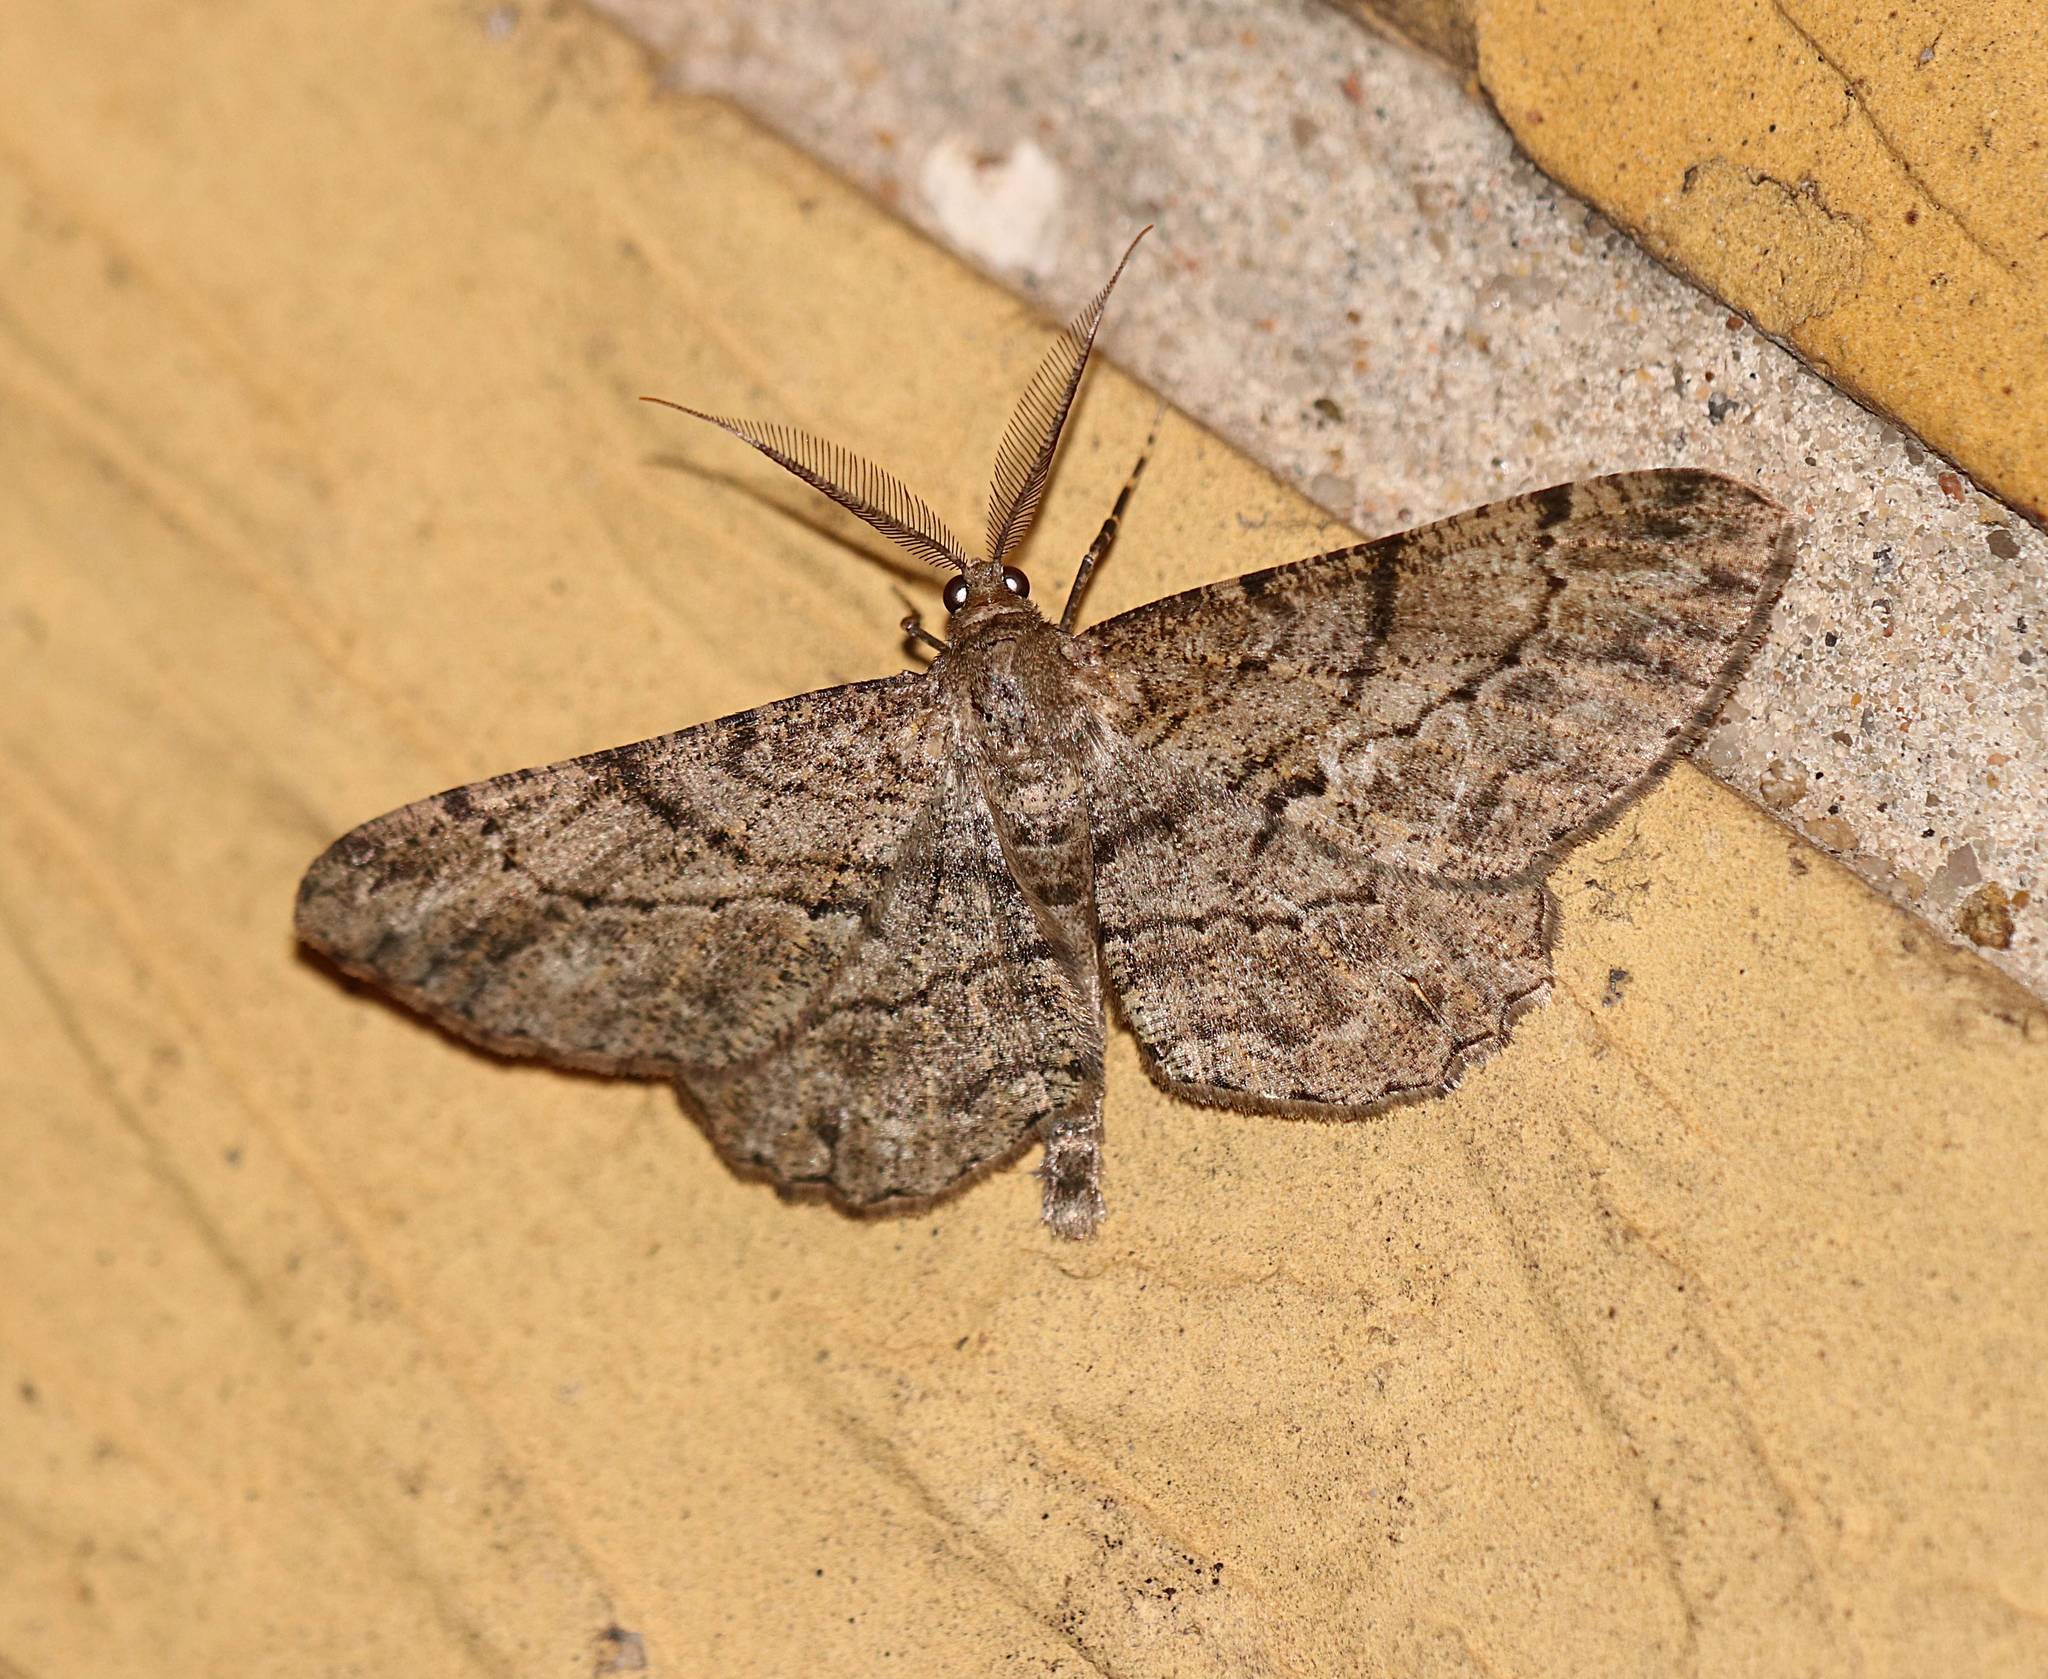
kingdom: Animalia
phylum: Arthropoda
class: Insecta
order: Lepidoptera
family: Geometridae
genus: Peribatodes
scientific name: Peribatodes rhomboidaria
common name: Willow beauty
